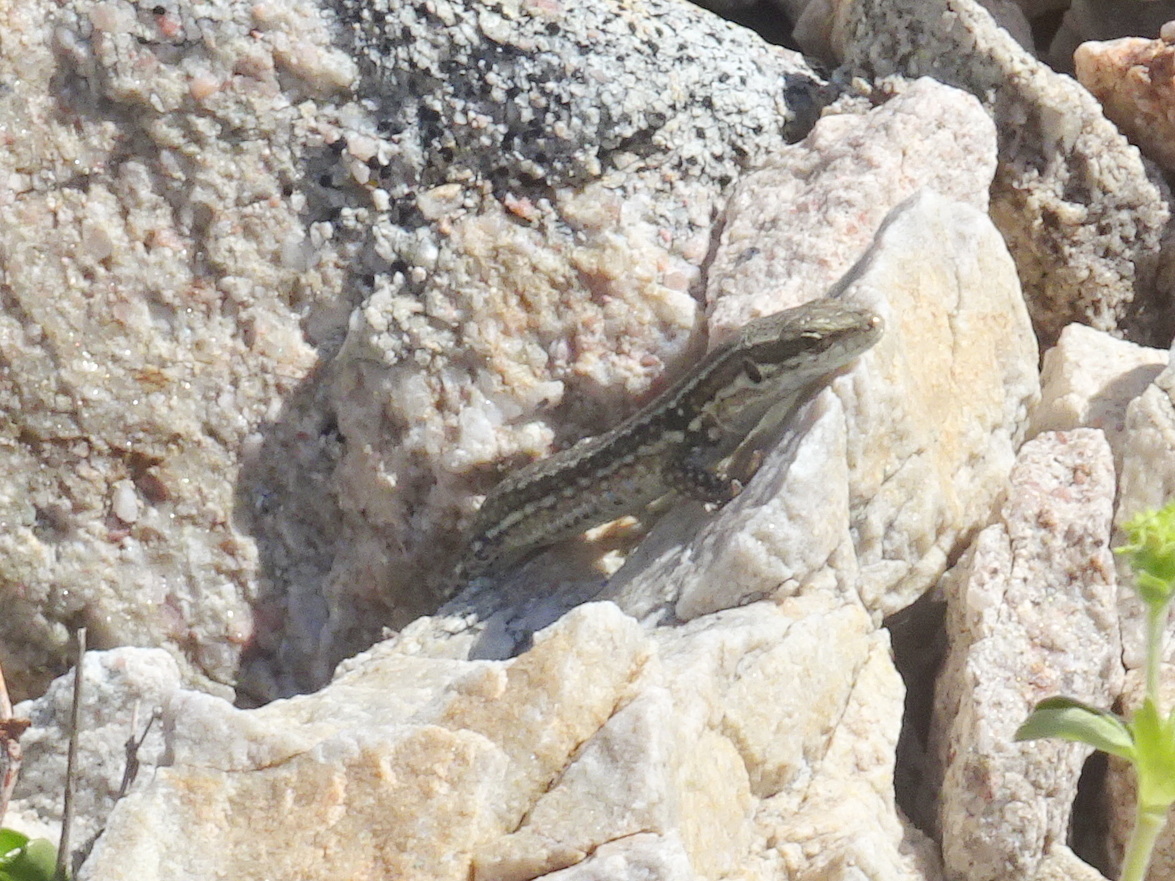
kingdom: Animalia
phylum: Chordata
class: Squamata
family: Lacertidae
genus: Podarcis
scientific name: Podarcis muralis
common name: Common wall lizard
